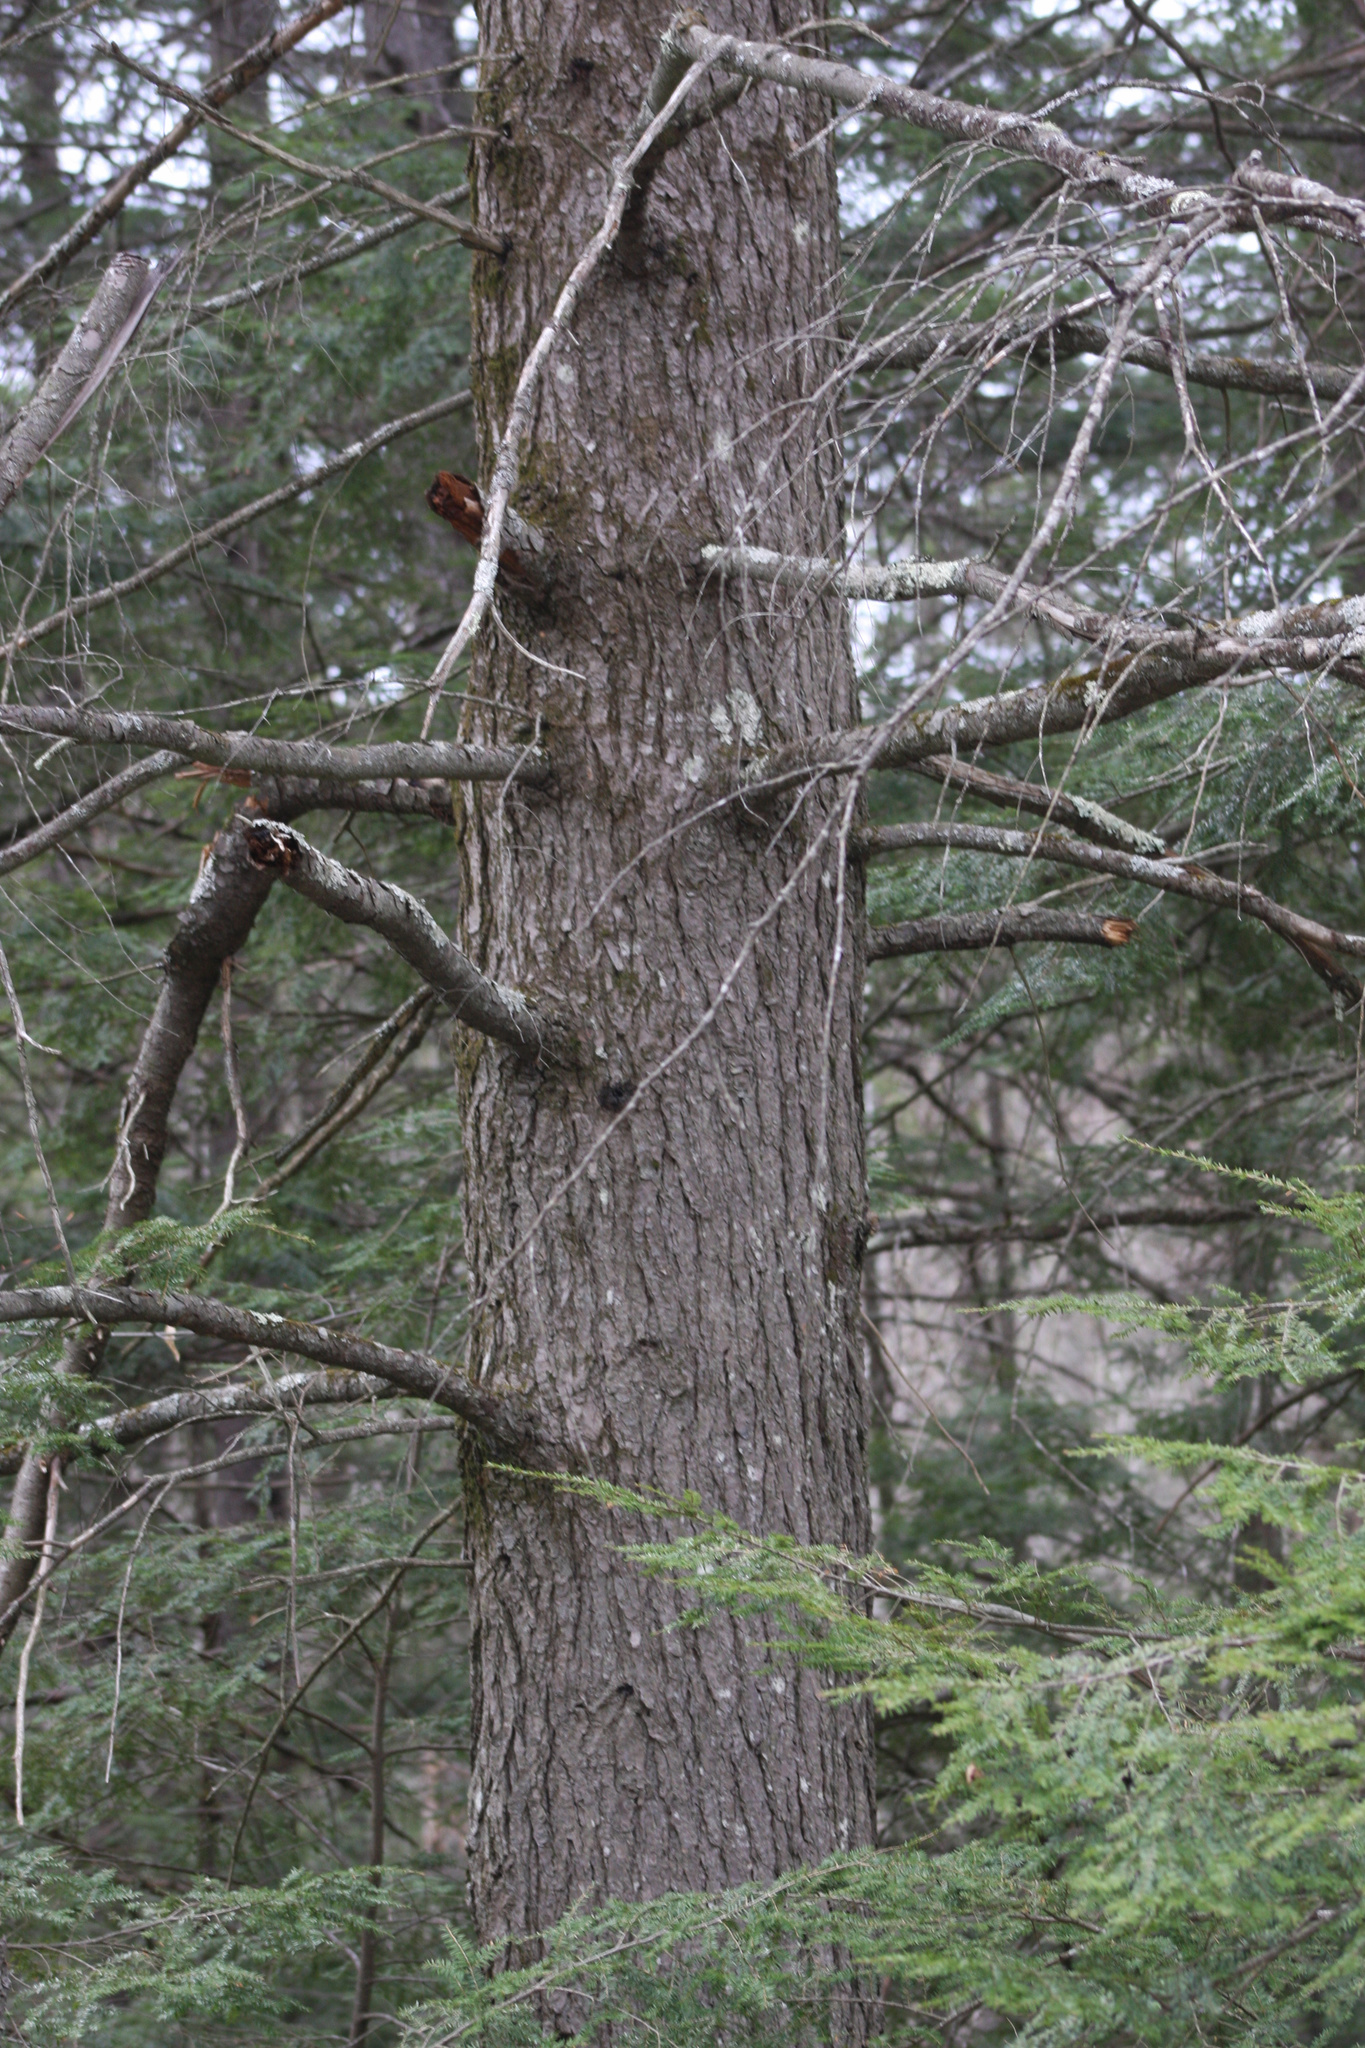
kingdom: Plantae
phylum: Tracheophyta
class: Pinopsida
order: Pinales
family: Pinaceae
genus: Tsuga
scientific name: Tsuga canadensis
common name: Eastern hemlock
